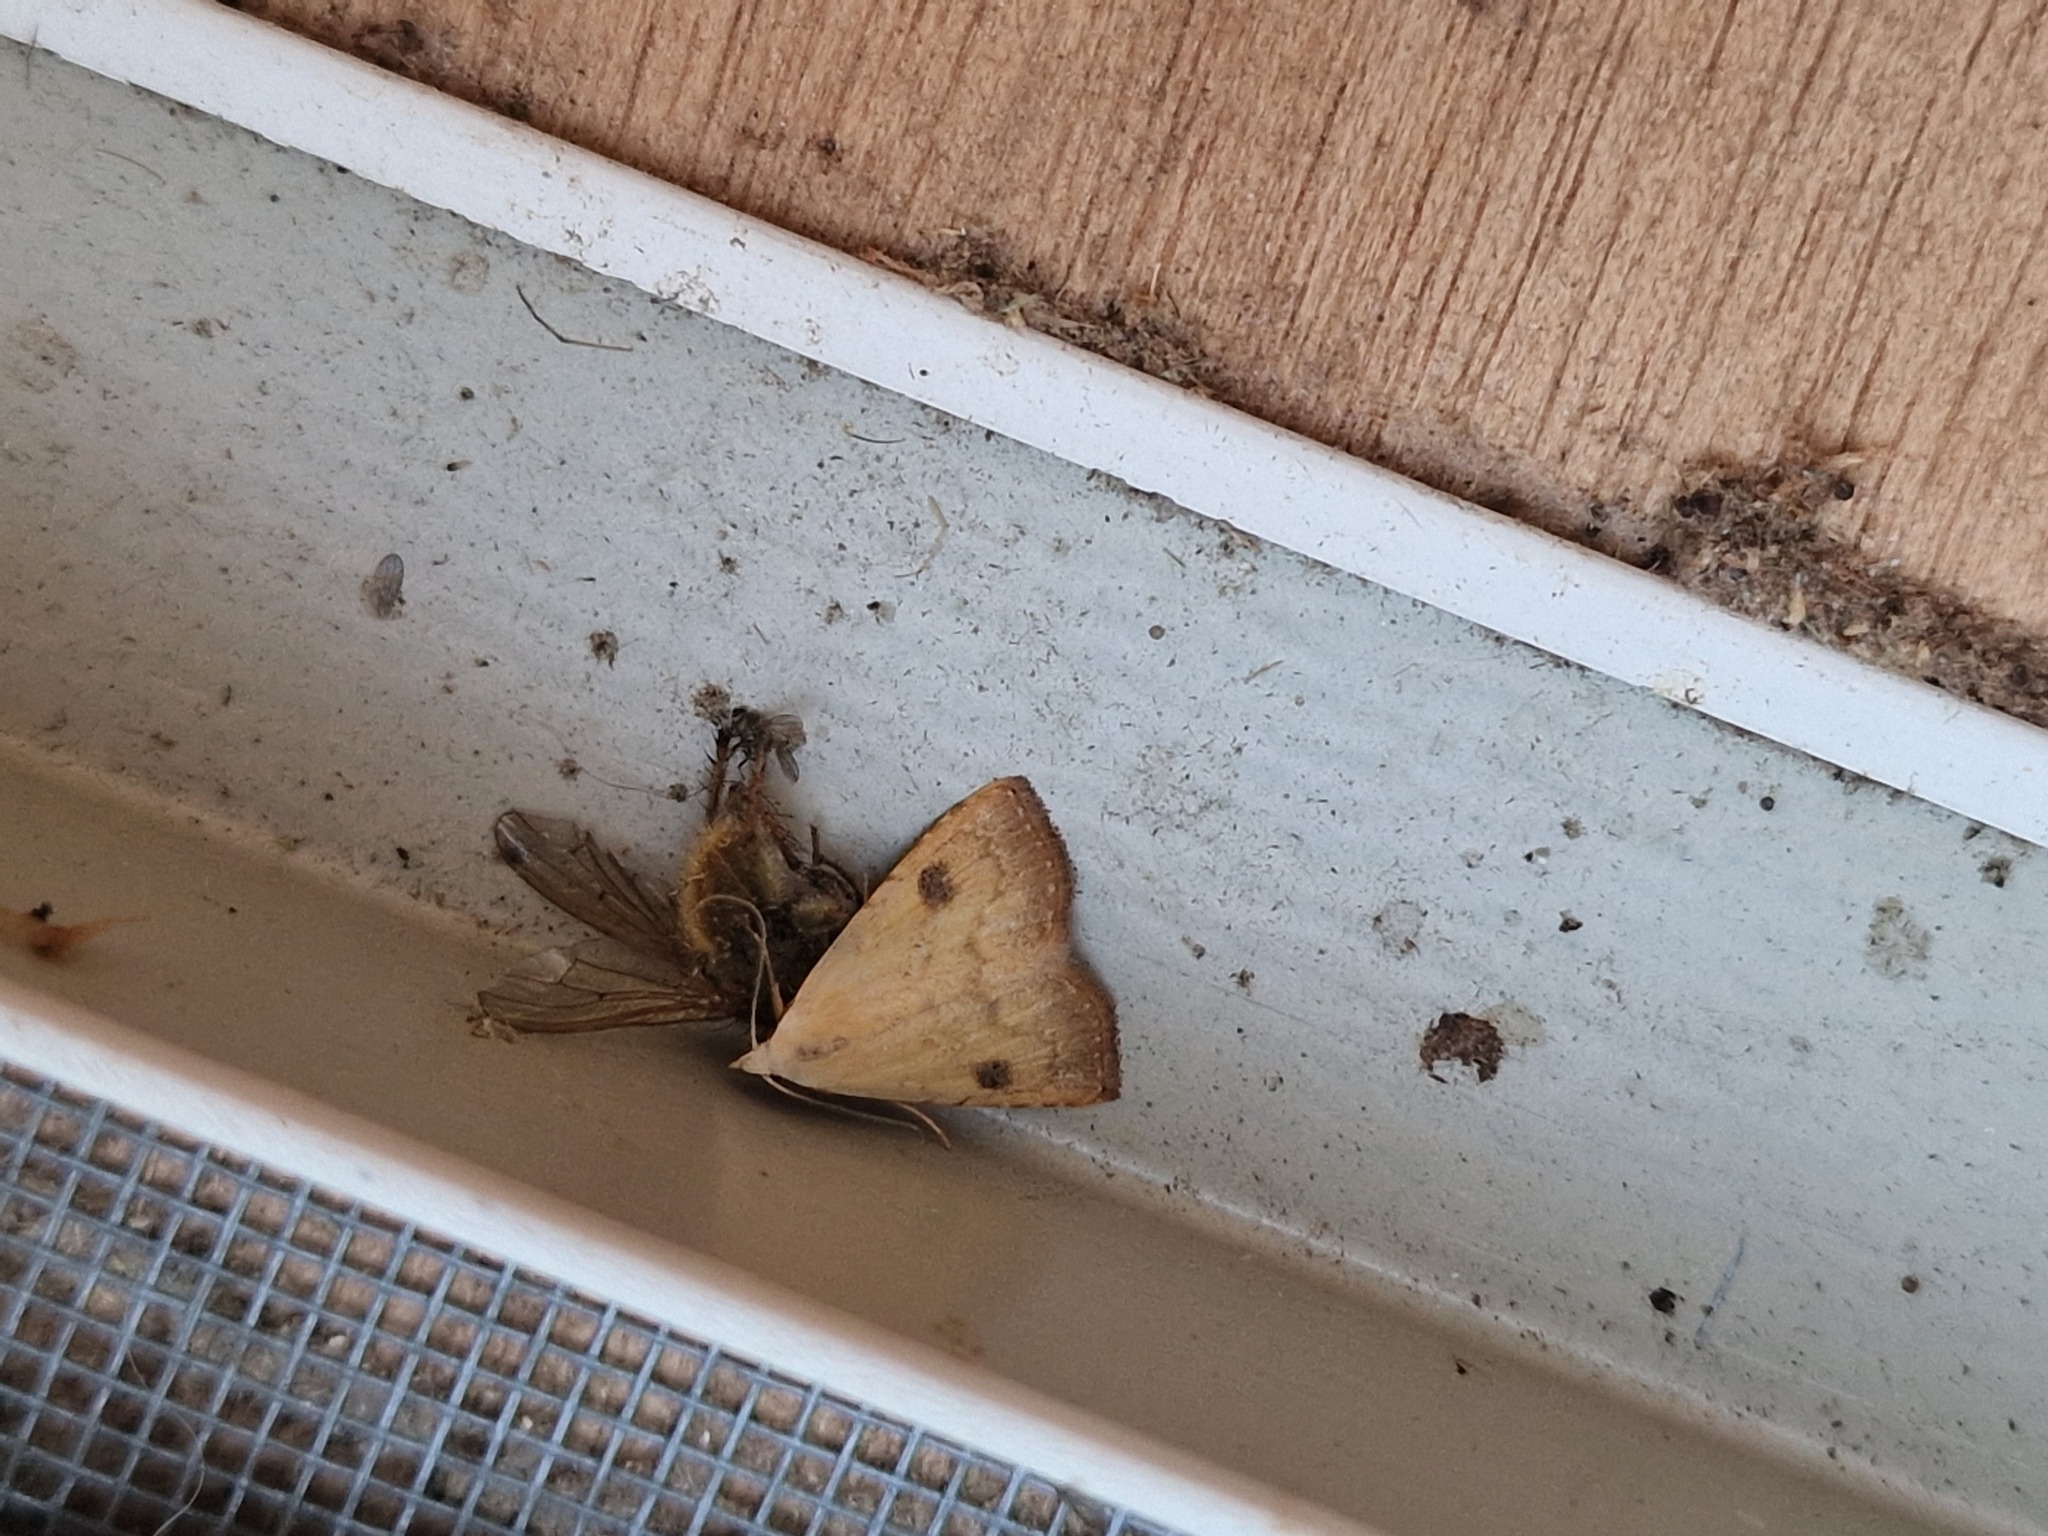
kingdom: Animalia
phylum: Arthropoda
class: Insecta
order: Lepidoptera
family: Erebidae
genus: Rivula
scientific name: Rivula sericealis
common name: Straw dot
